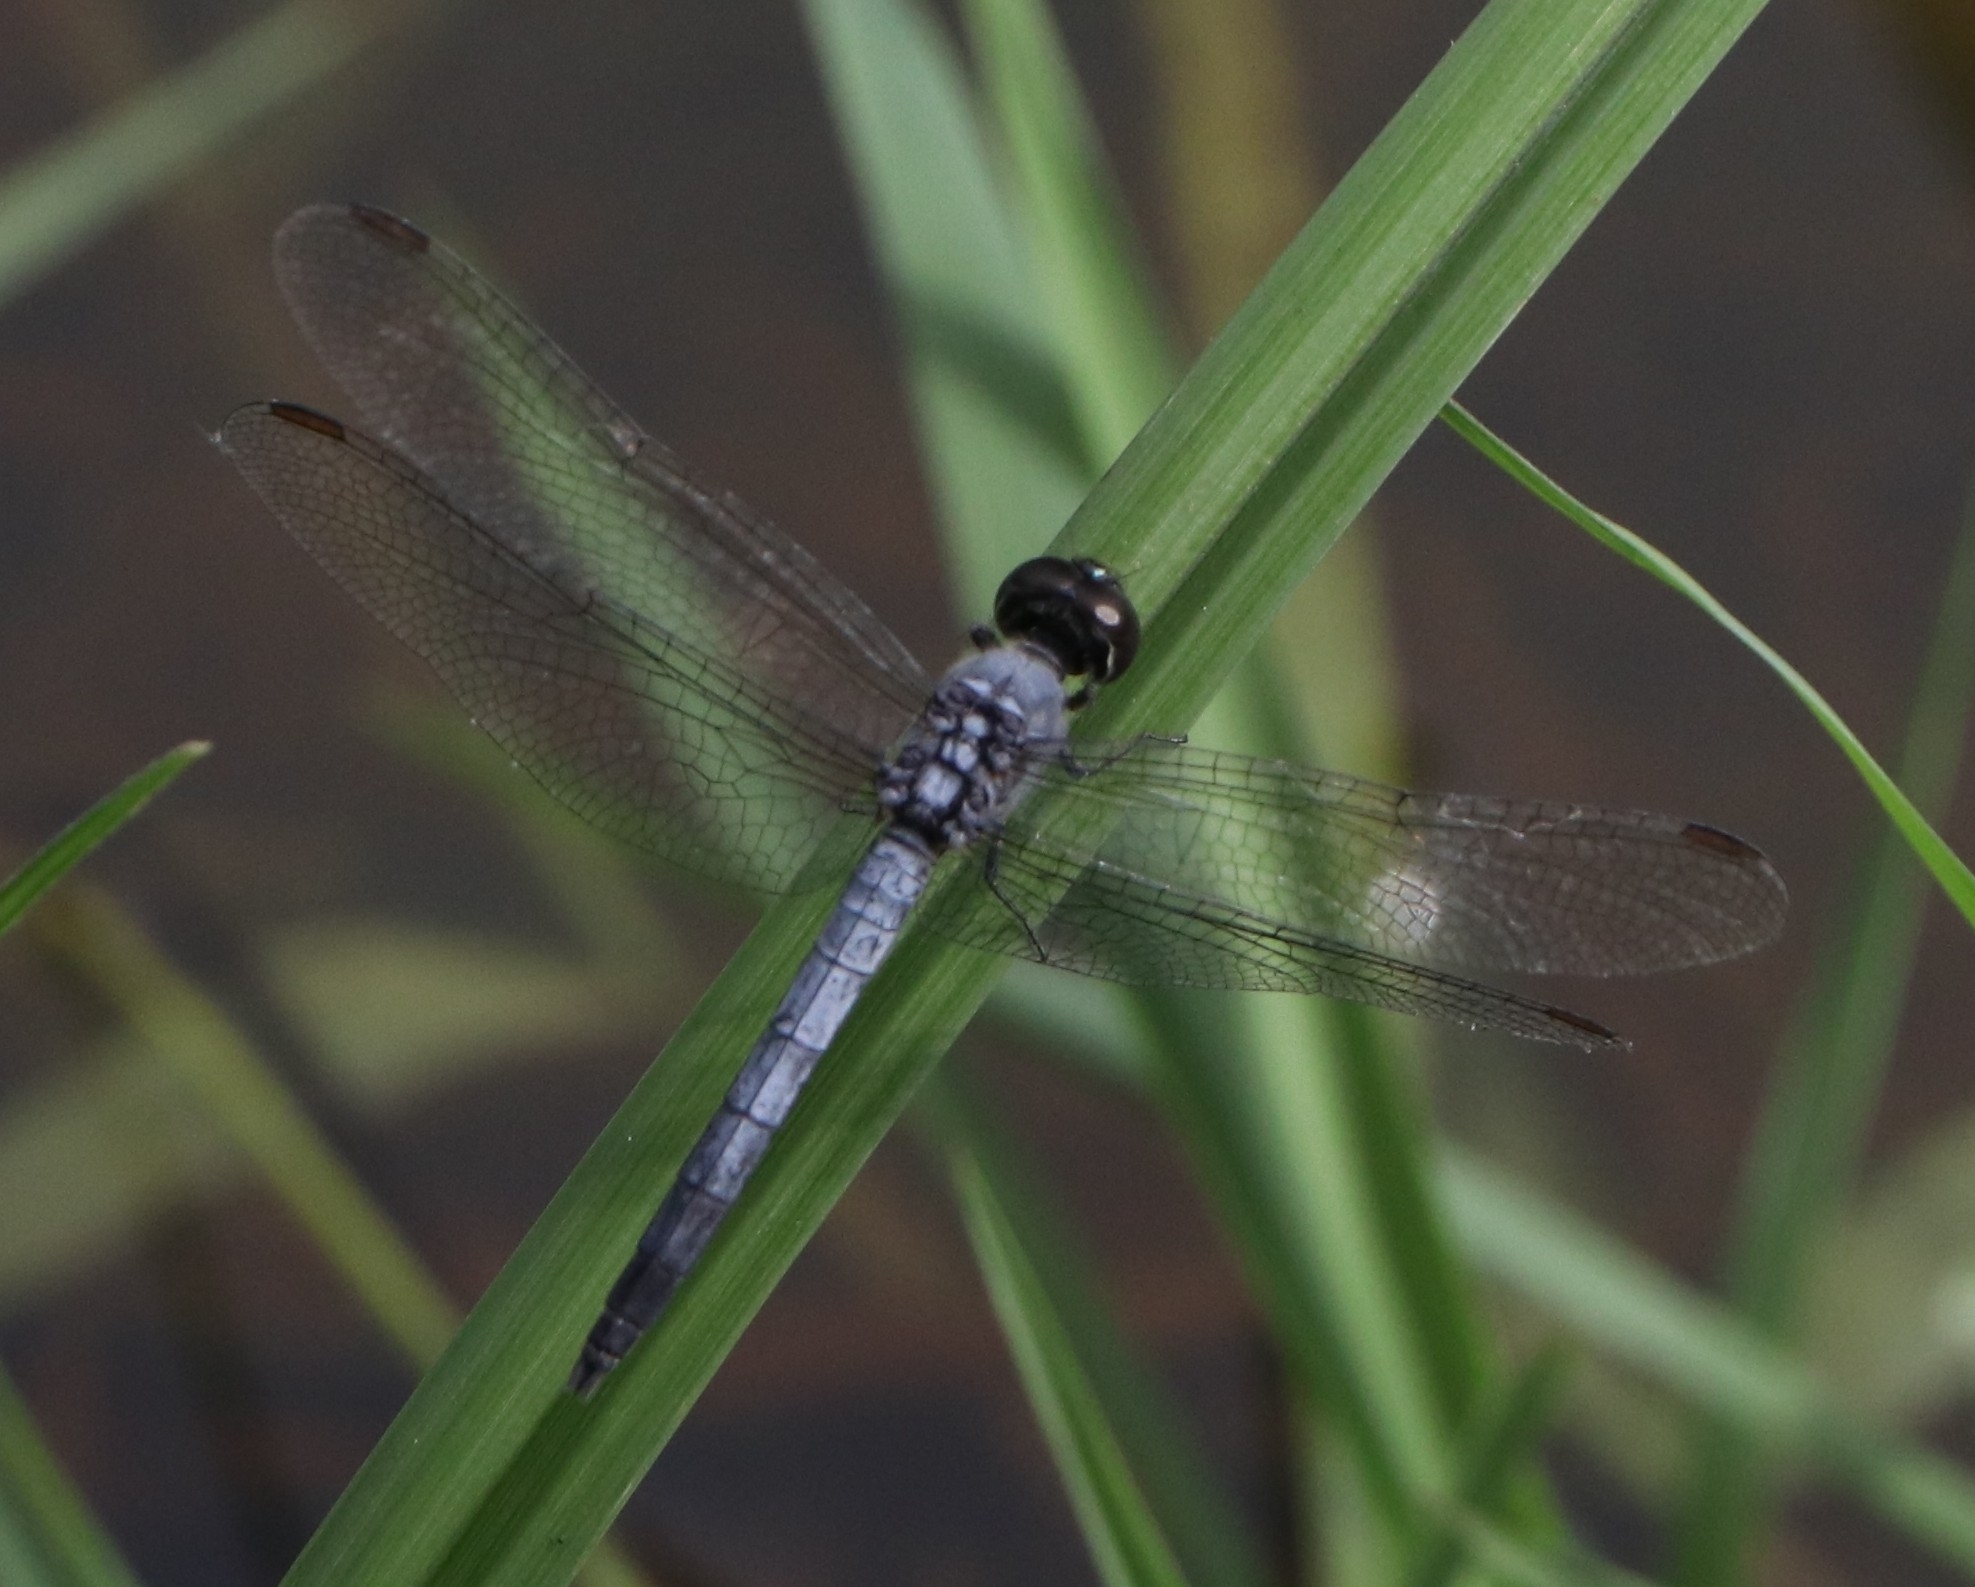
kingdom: Animalia
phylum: Arthropoda
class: Insecta
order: Odonata
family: Libellulidae
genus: Brachydiplax
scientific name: Brachydiplax sobrina
